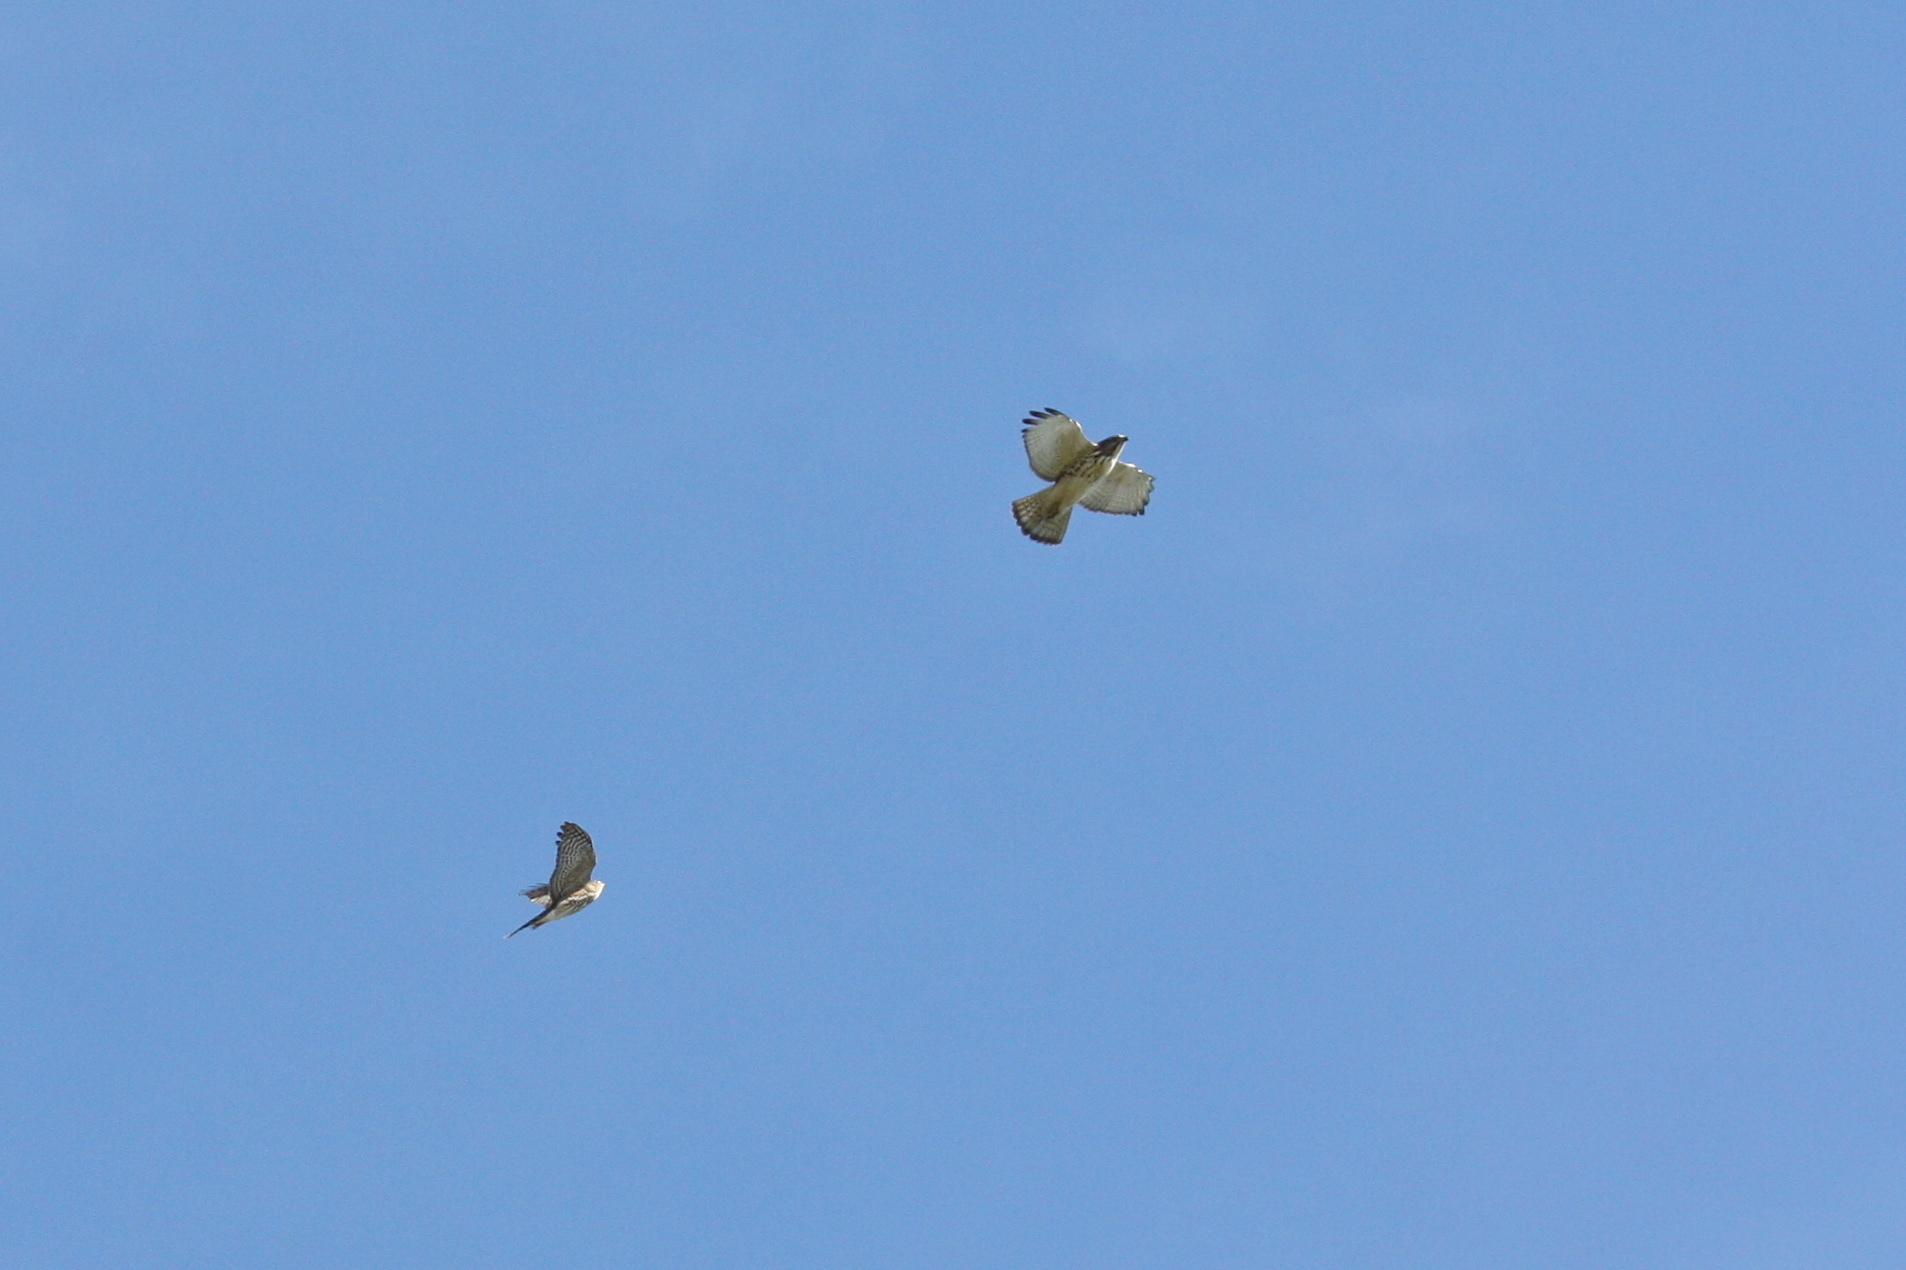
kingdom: Animalia
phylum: Chordata
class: Aves
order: Accipitriformes
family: Accipitridae
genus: Buteo
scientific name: Buteo platypterus
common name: Broad-winged hawk
